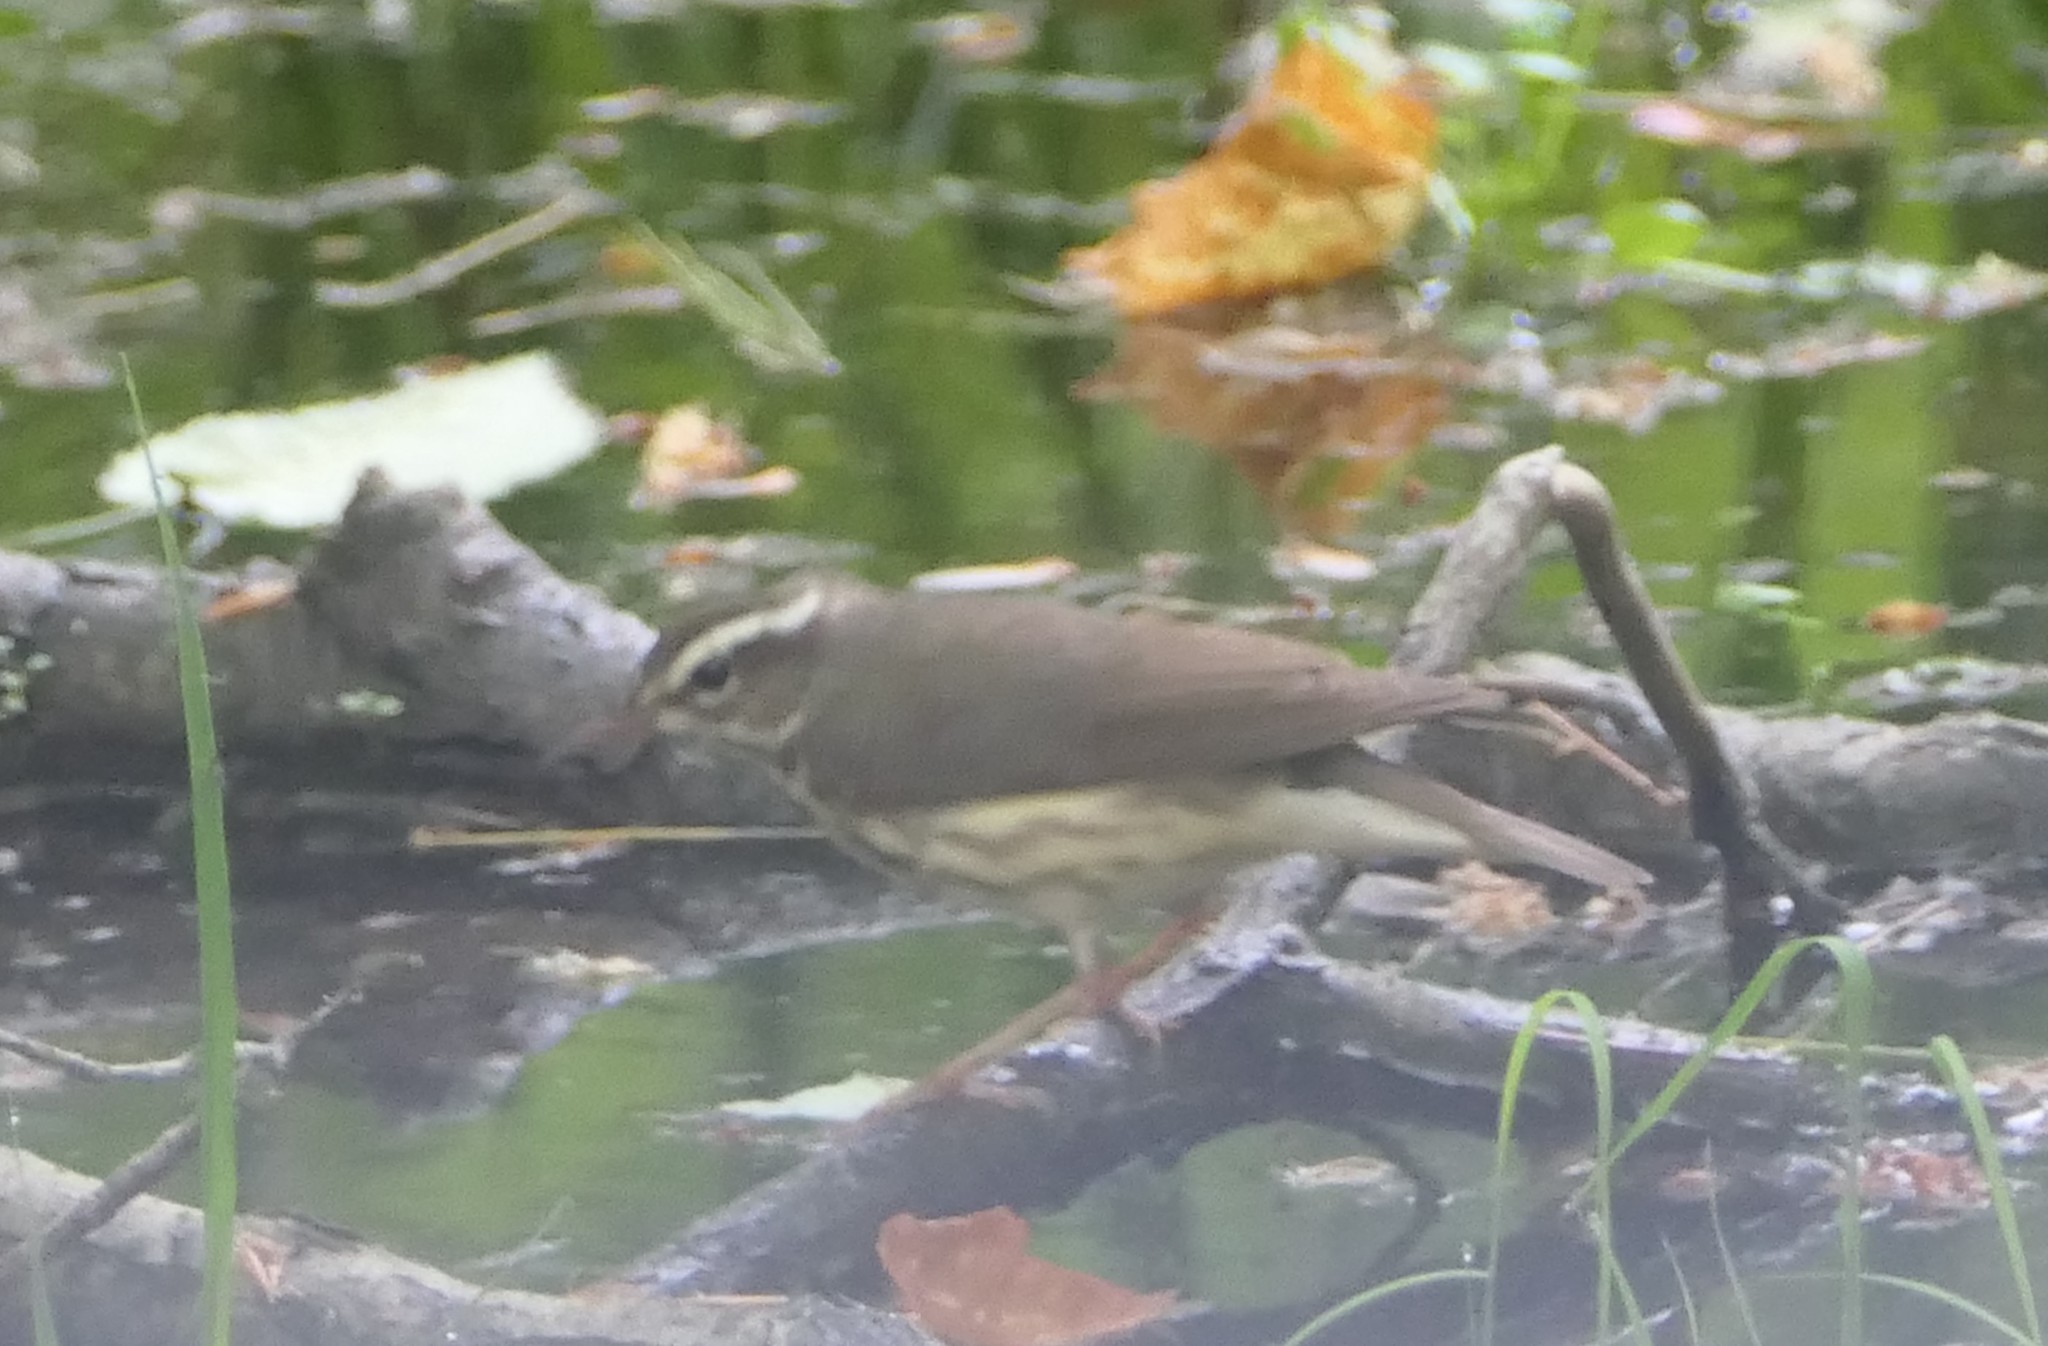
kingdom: Animalia
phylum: Chordata
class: Aves
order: Passeriformes
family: Parulidae
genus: Parkesia
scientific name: Parkesia motacilla
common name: Louisiana waterthrush
